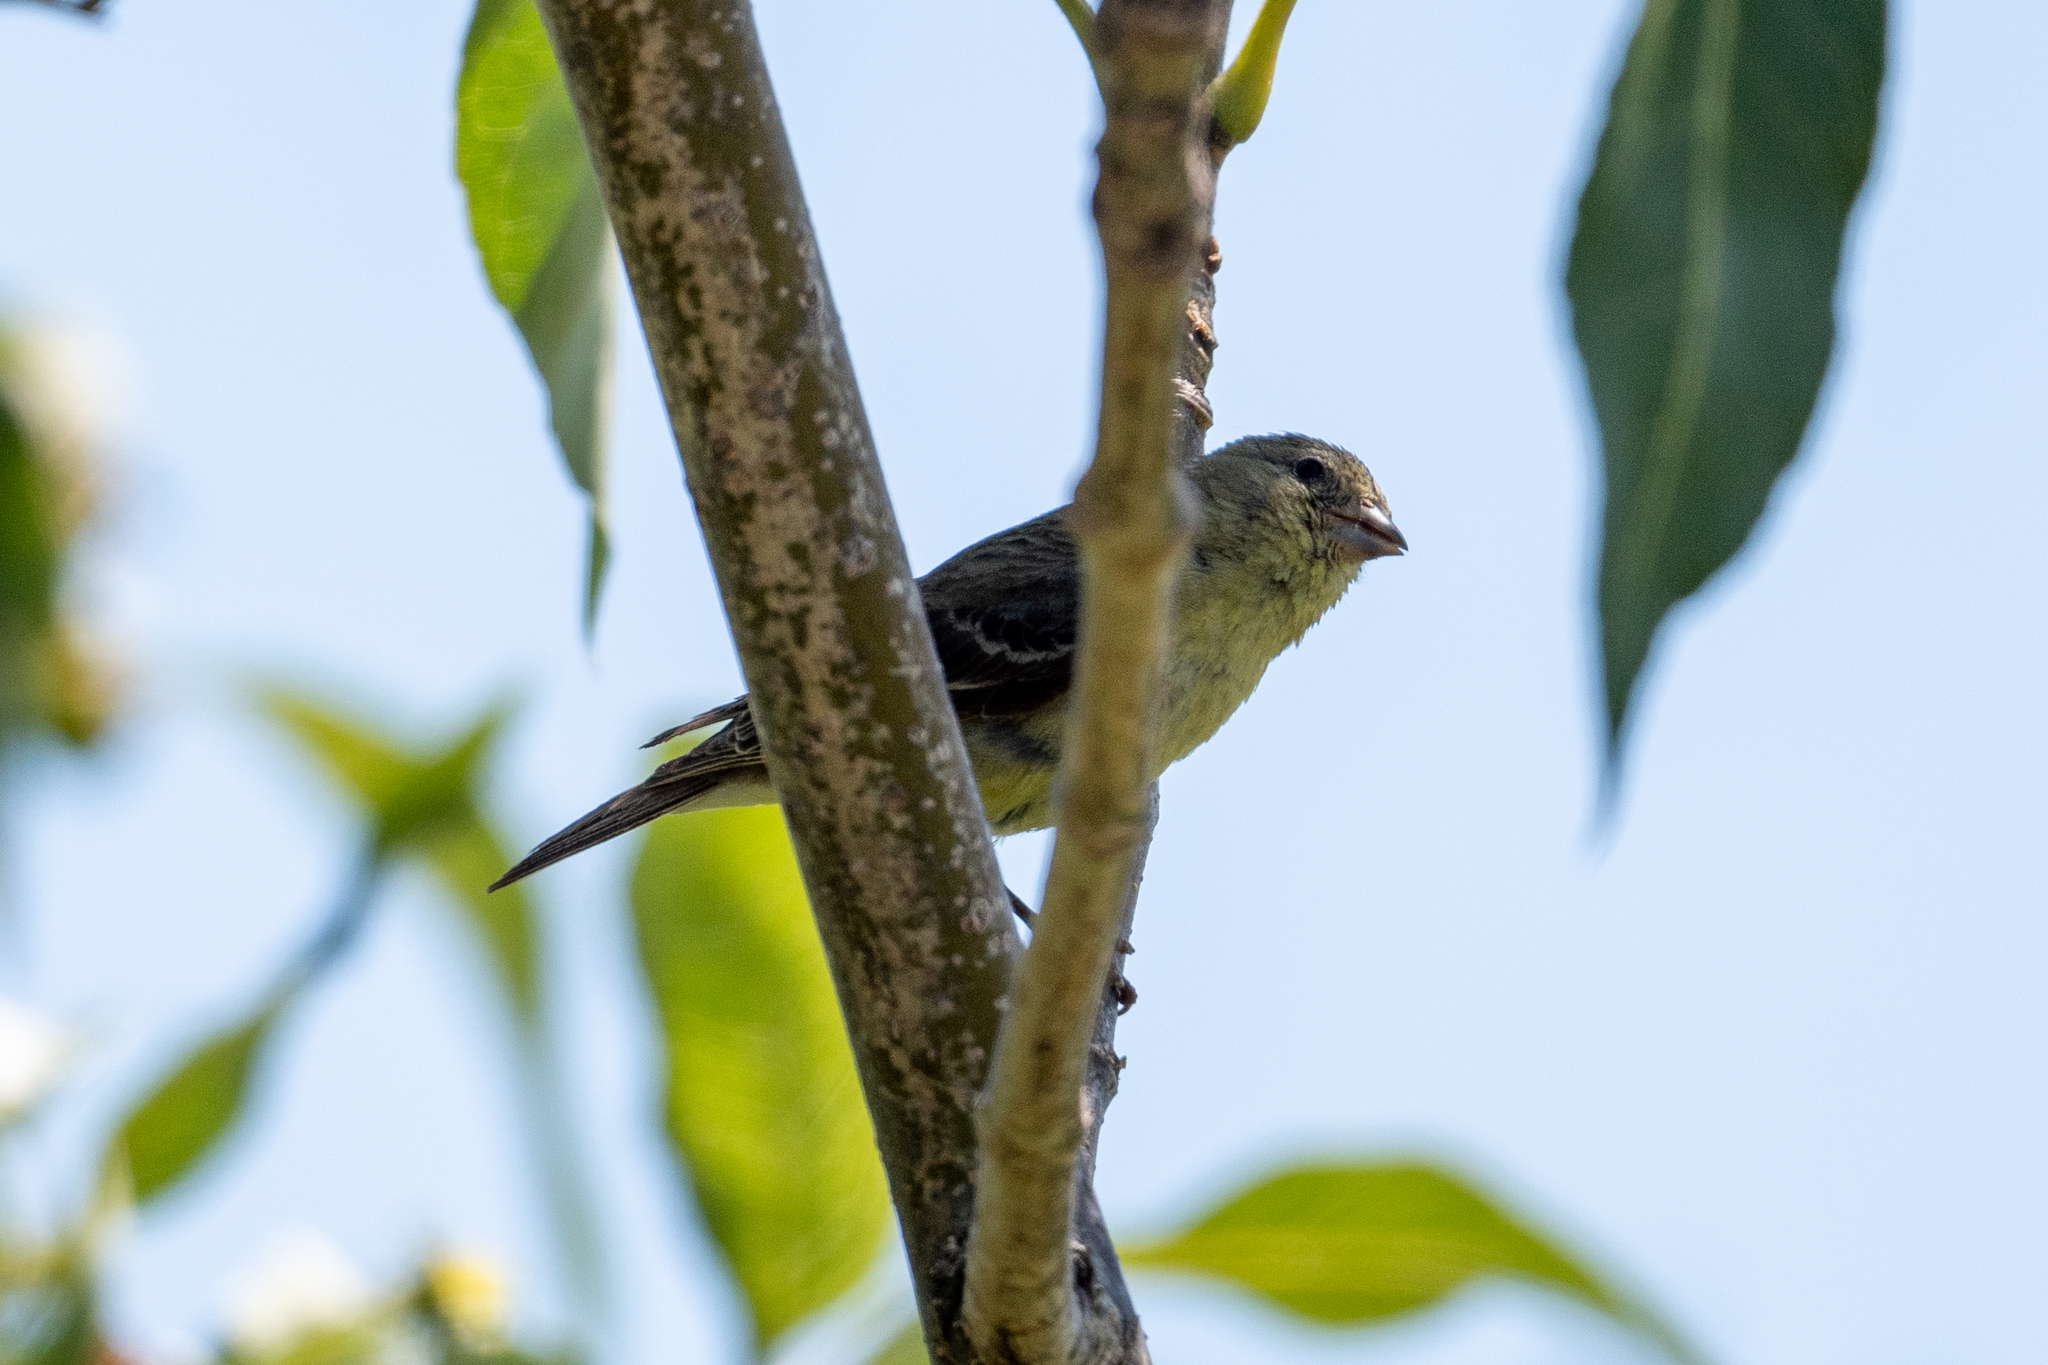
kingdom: Animalia
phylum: Chordata
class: Aves
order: Passeriformes
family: Fringillidae
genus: Spinus
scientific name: Spinus psaltria
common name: Lesser goldfinch
